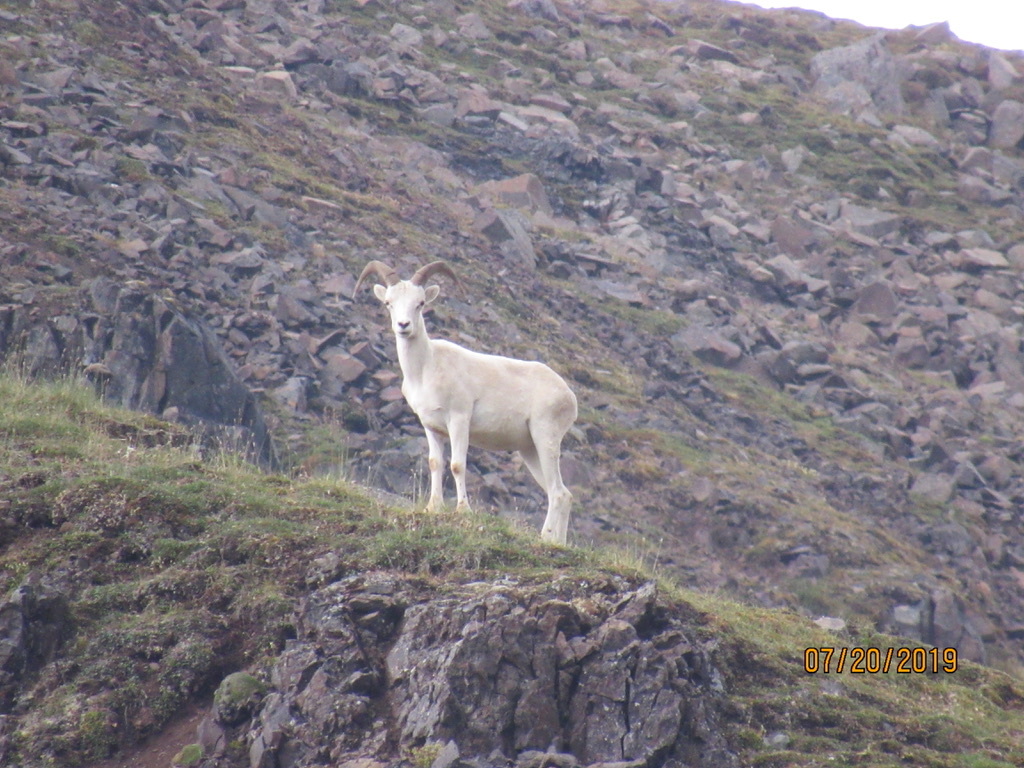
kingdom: Animalia
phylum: Chordata
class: Mammalia
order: Artiodactyla
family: Bovidae
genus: Ovis
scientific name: Ovis dalli
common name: Dall's sheep
